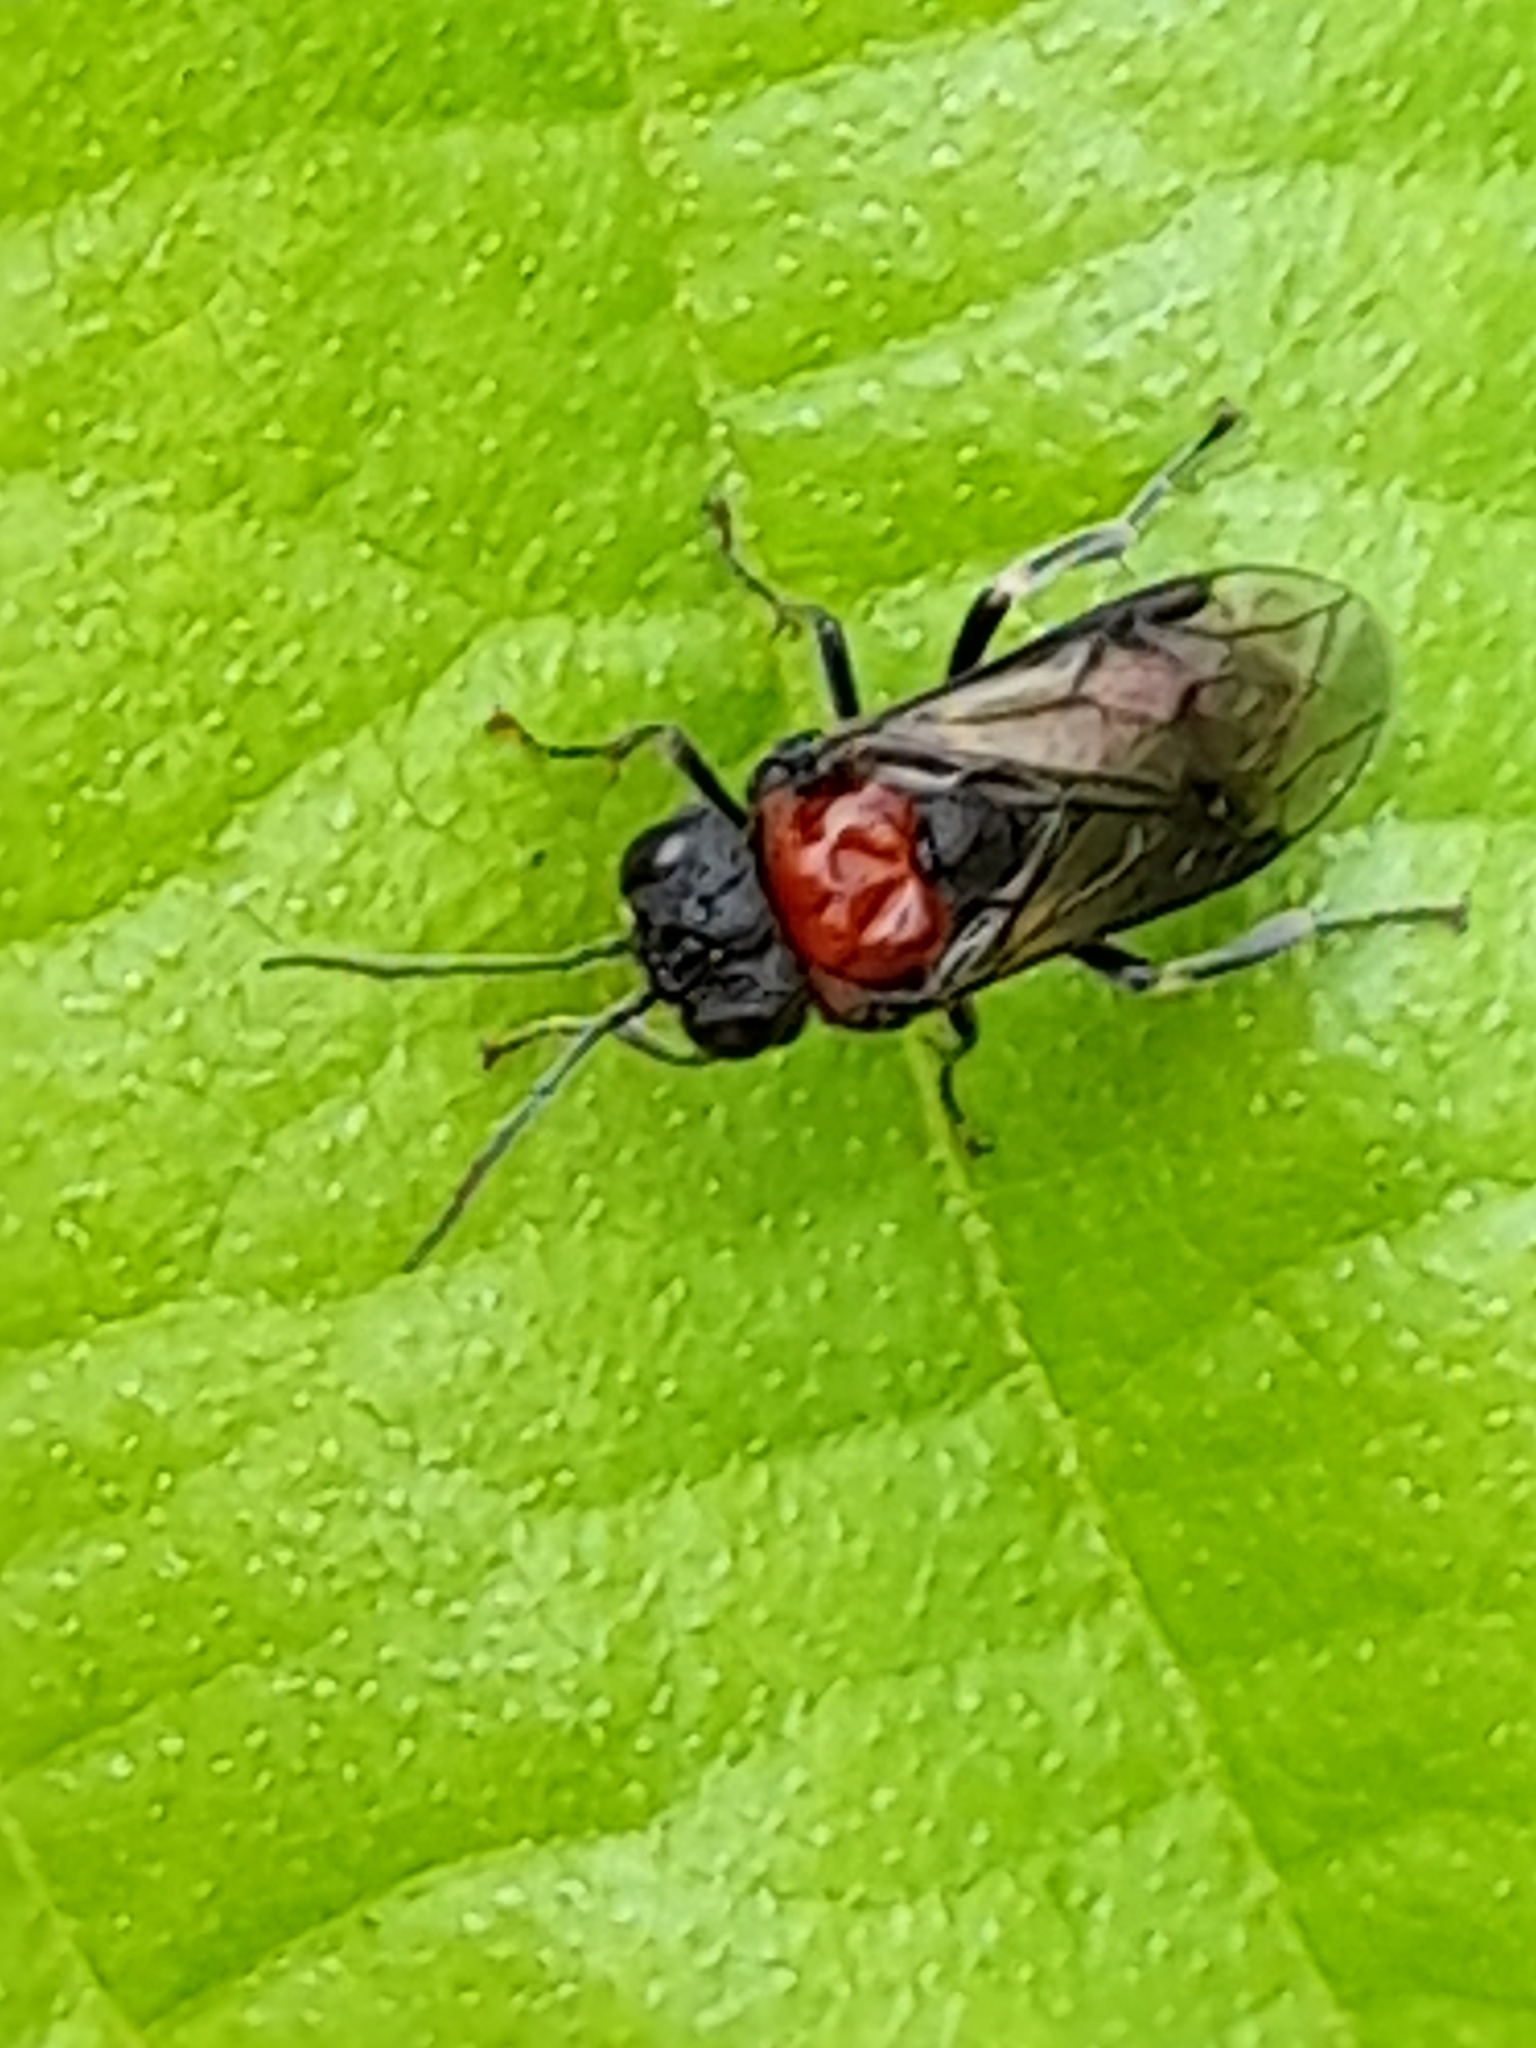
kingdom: Animalia
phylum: Arthropoda
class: Insecta
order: Hymenoptera
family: Tenthredinidae
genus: Eriocampa
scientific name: Eriocampa ovata
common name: Alder wooly sawfly
